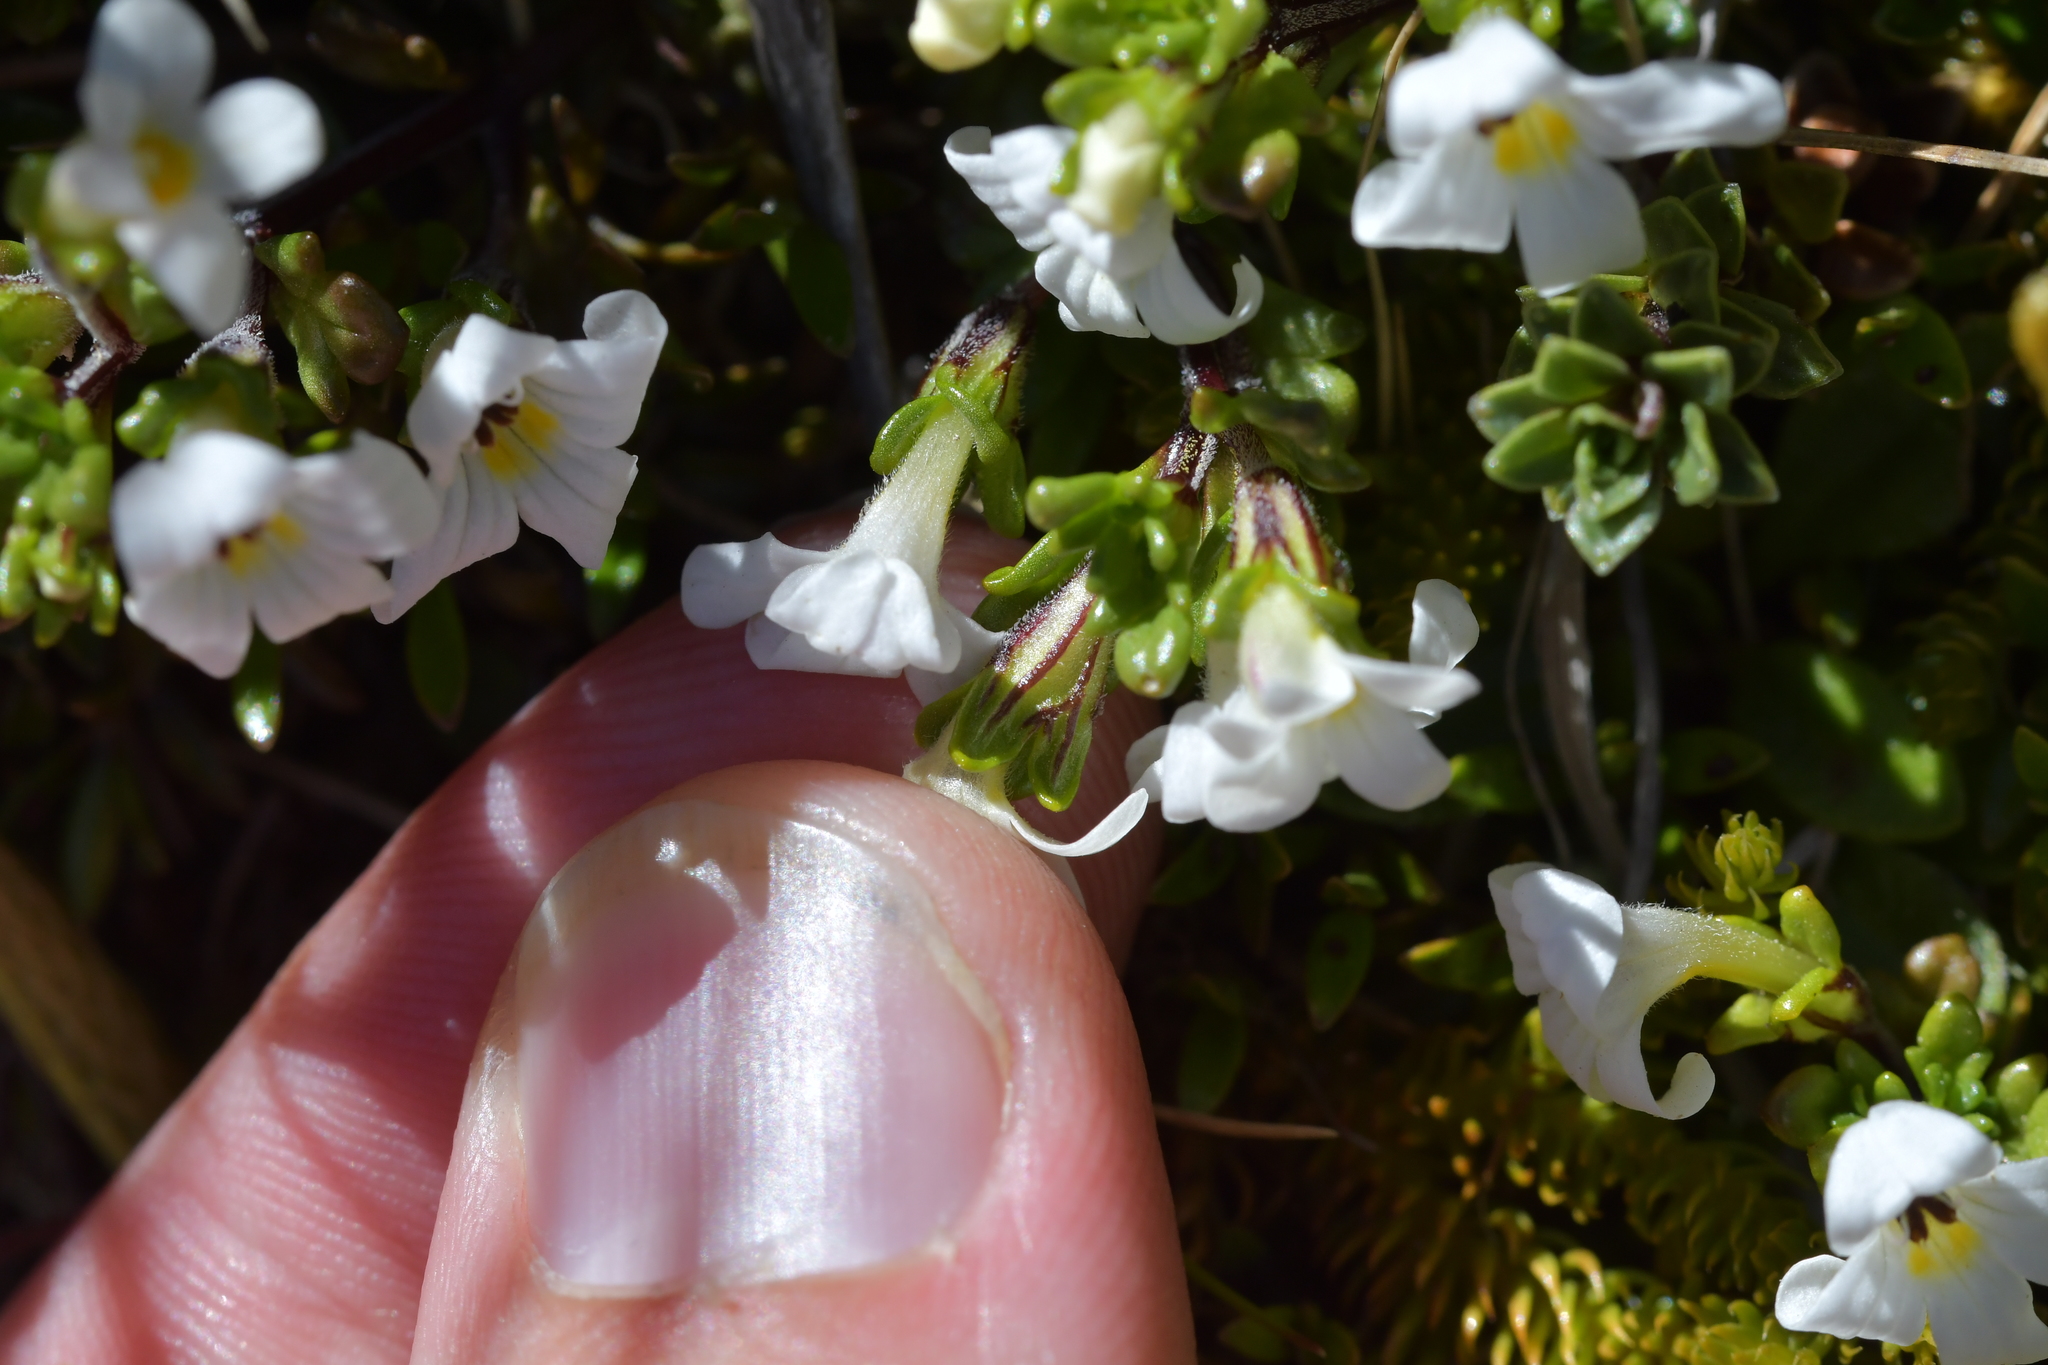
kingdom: Plantae
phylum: Tracheophyta
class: Magnoliopsida
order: Lamiales
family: Orobanchaceae
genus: Euphrasia
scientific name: Euphrasia revoluta
